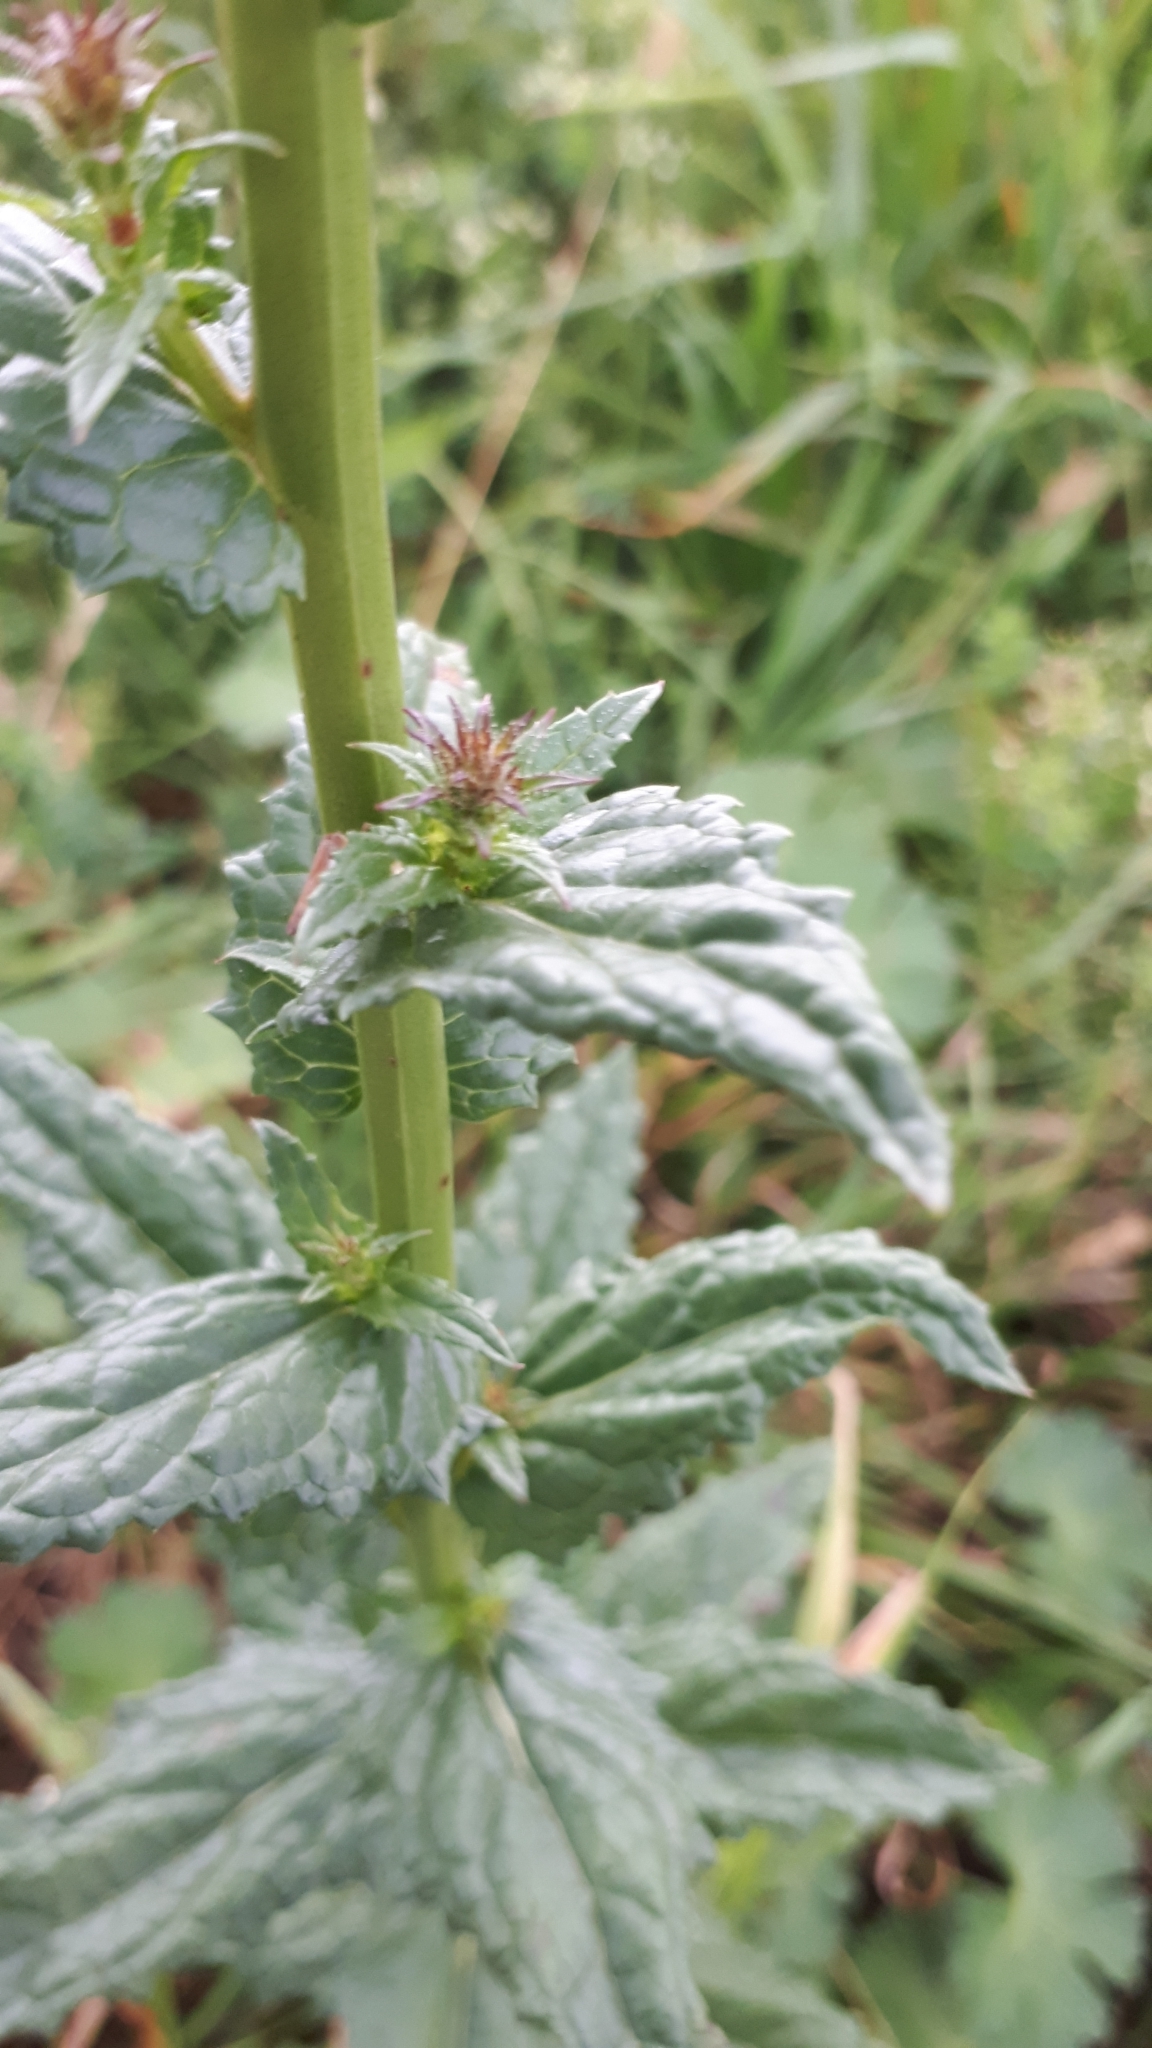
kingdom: Plantae
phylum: Tracheophyta
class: Magnoliopsida
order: Lamiales
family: Scrophulariaceae
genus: Verbascum
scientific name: Verbascum blattaria
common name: Moth mullein
